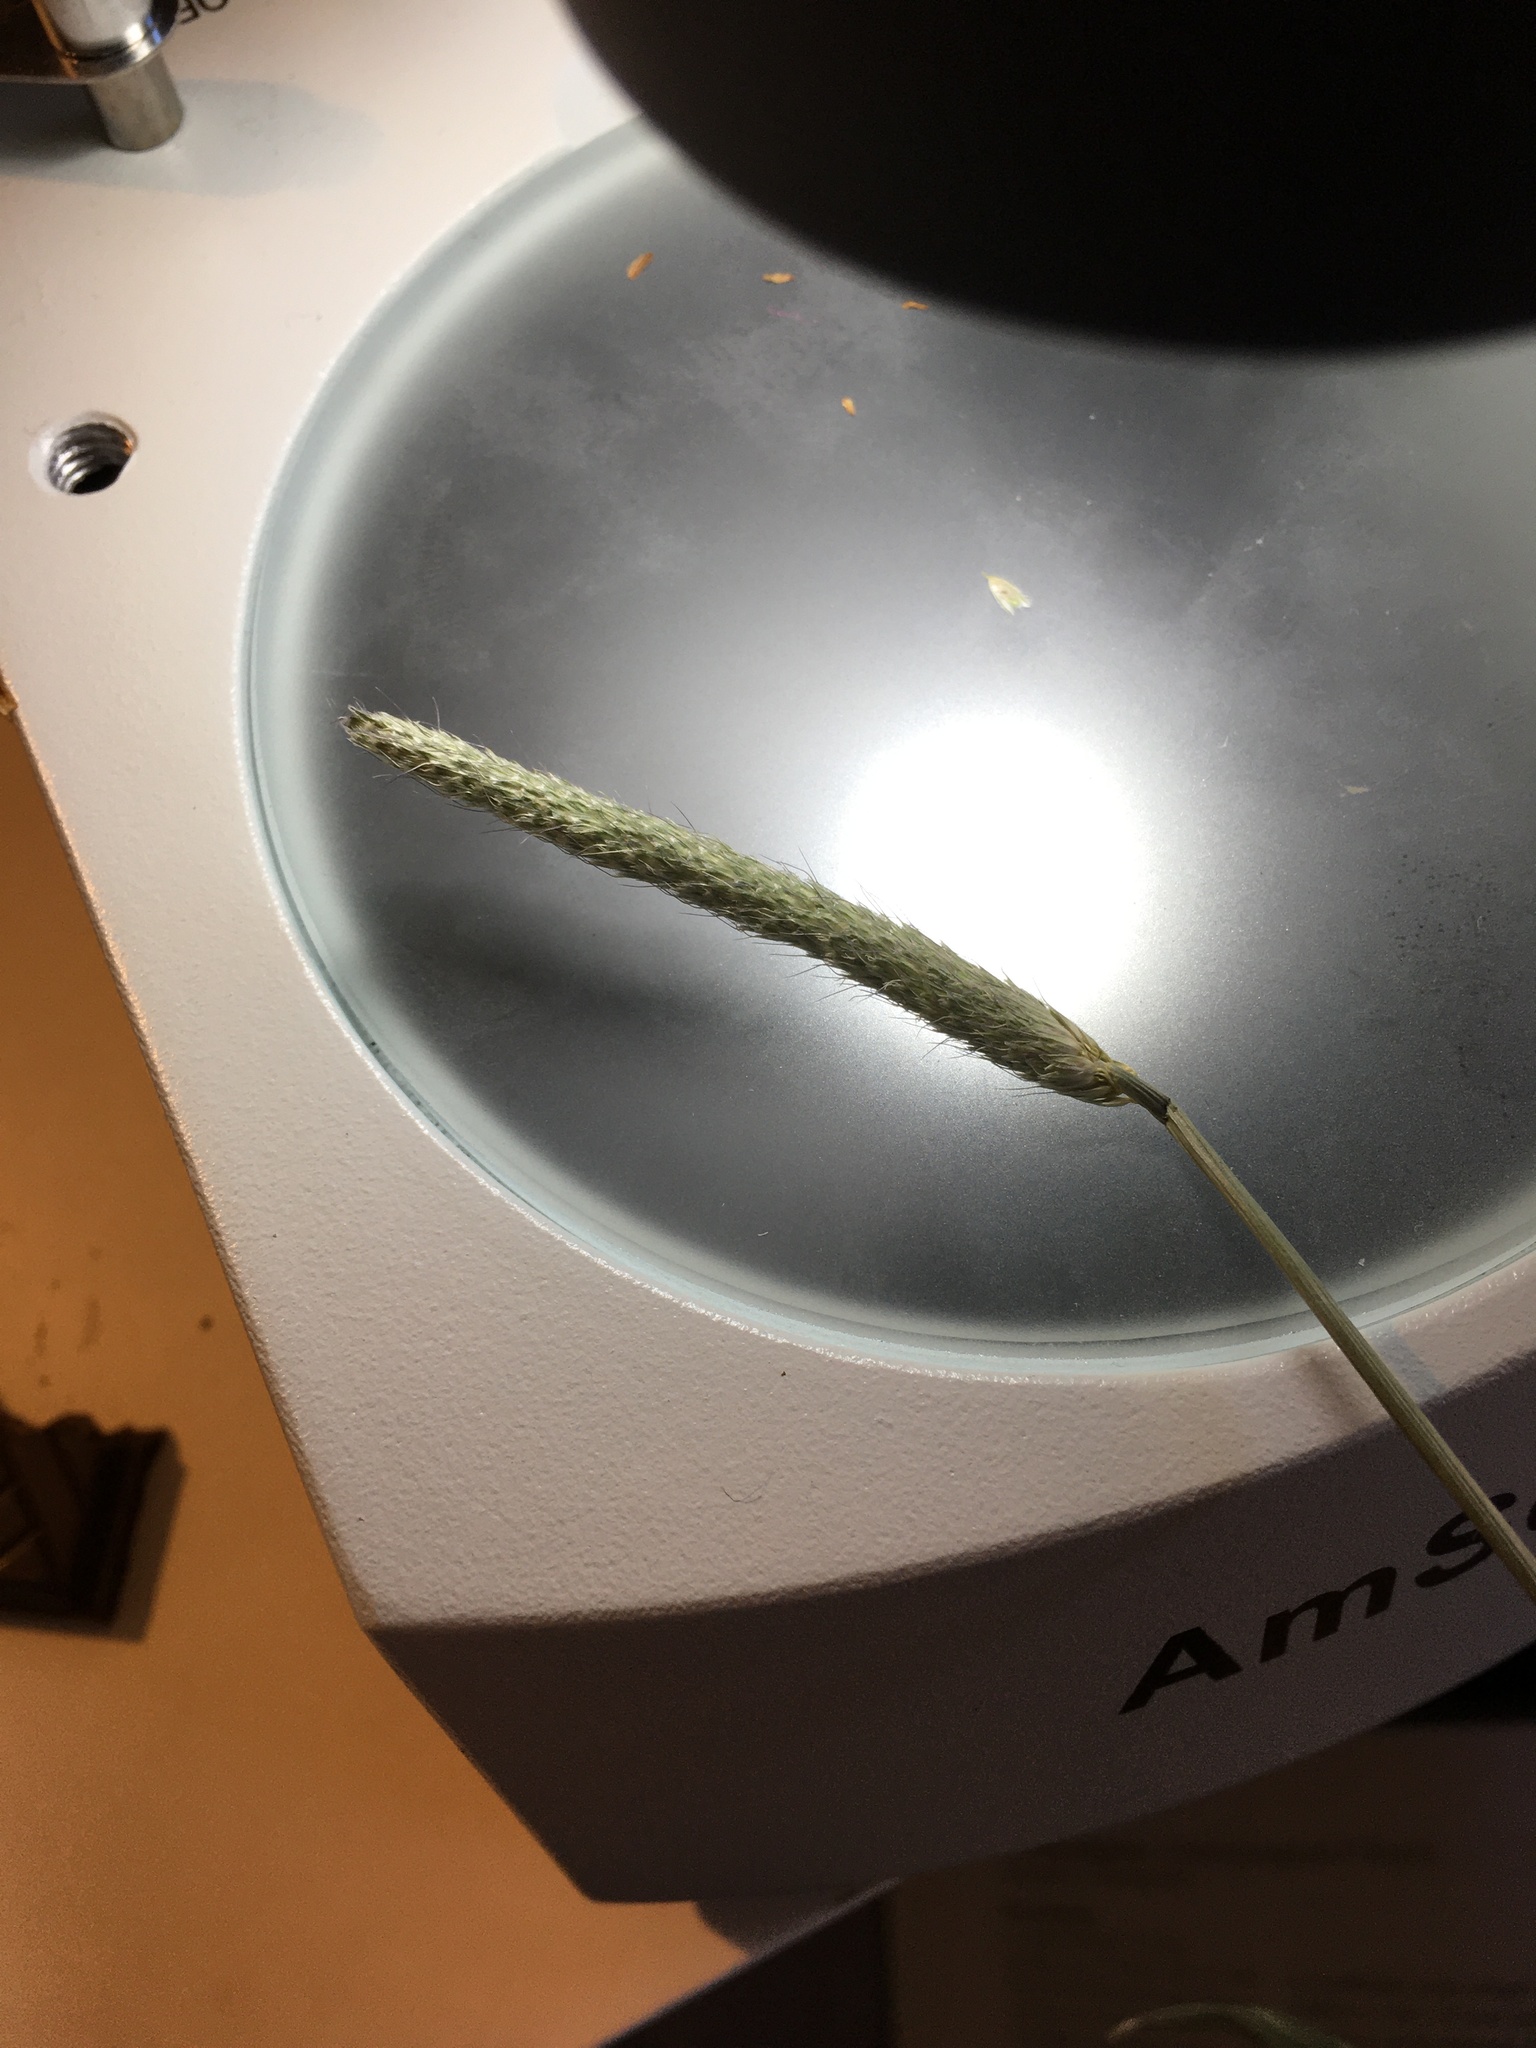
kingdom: Plantae
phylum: Tracheophyta
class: Liliopsida
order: Poales
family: Poaceae
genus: Alopecurus
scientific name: Alopecurus pratensis
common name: Meadow foxtail
